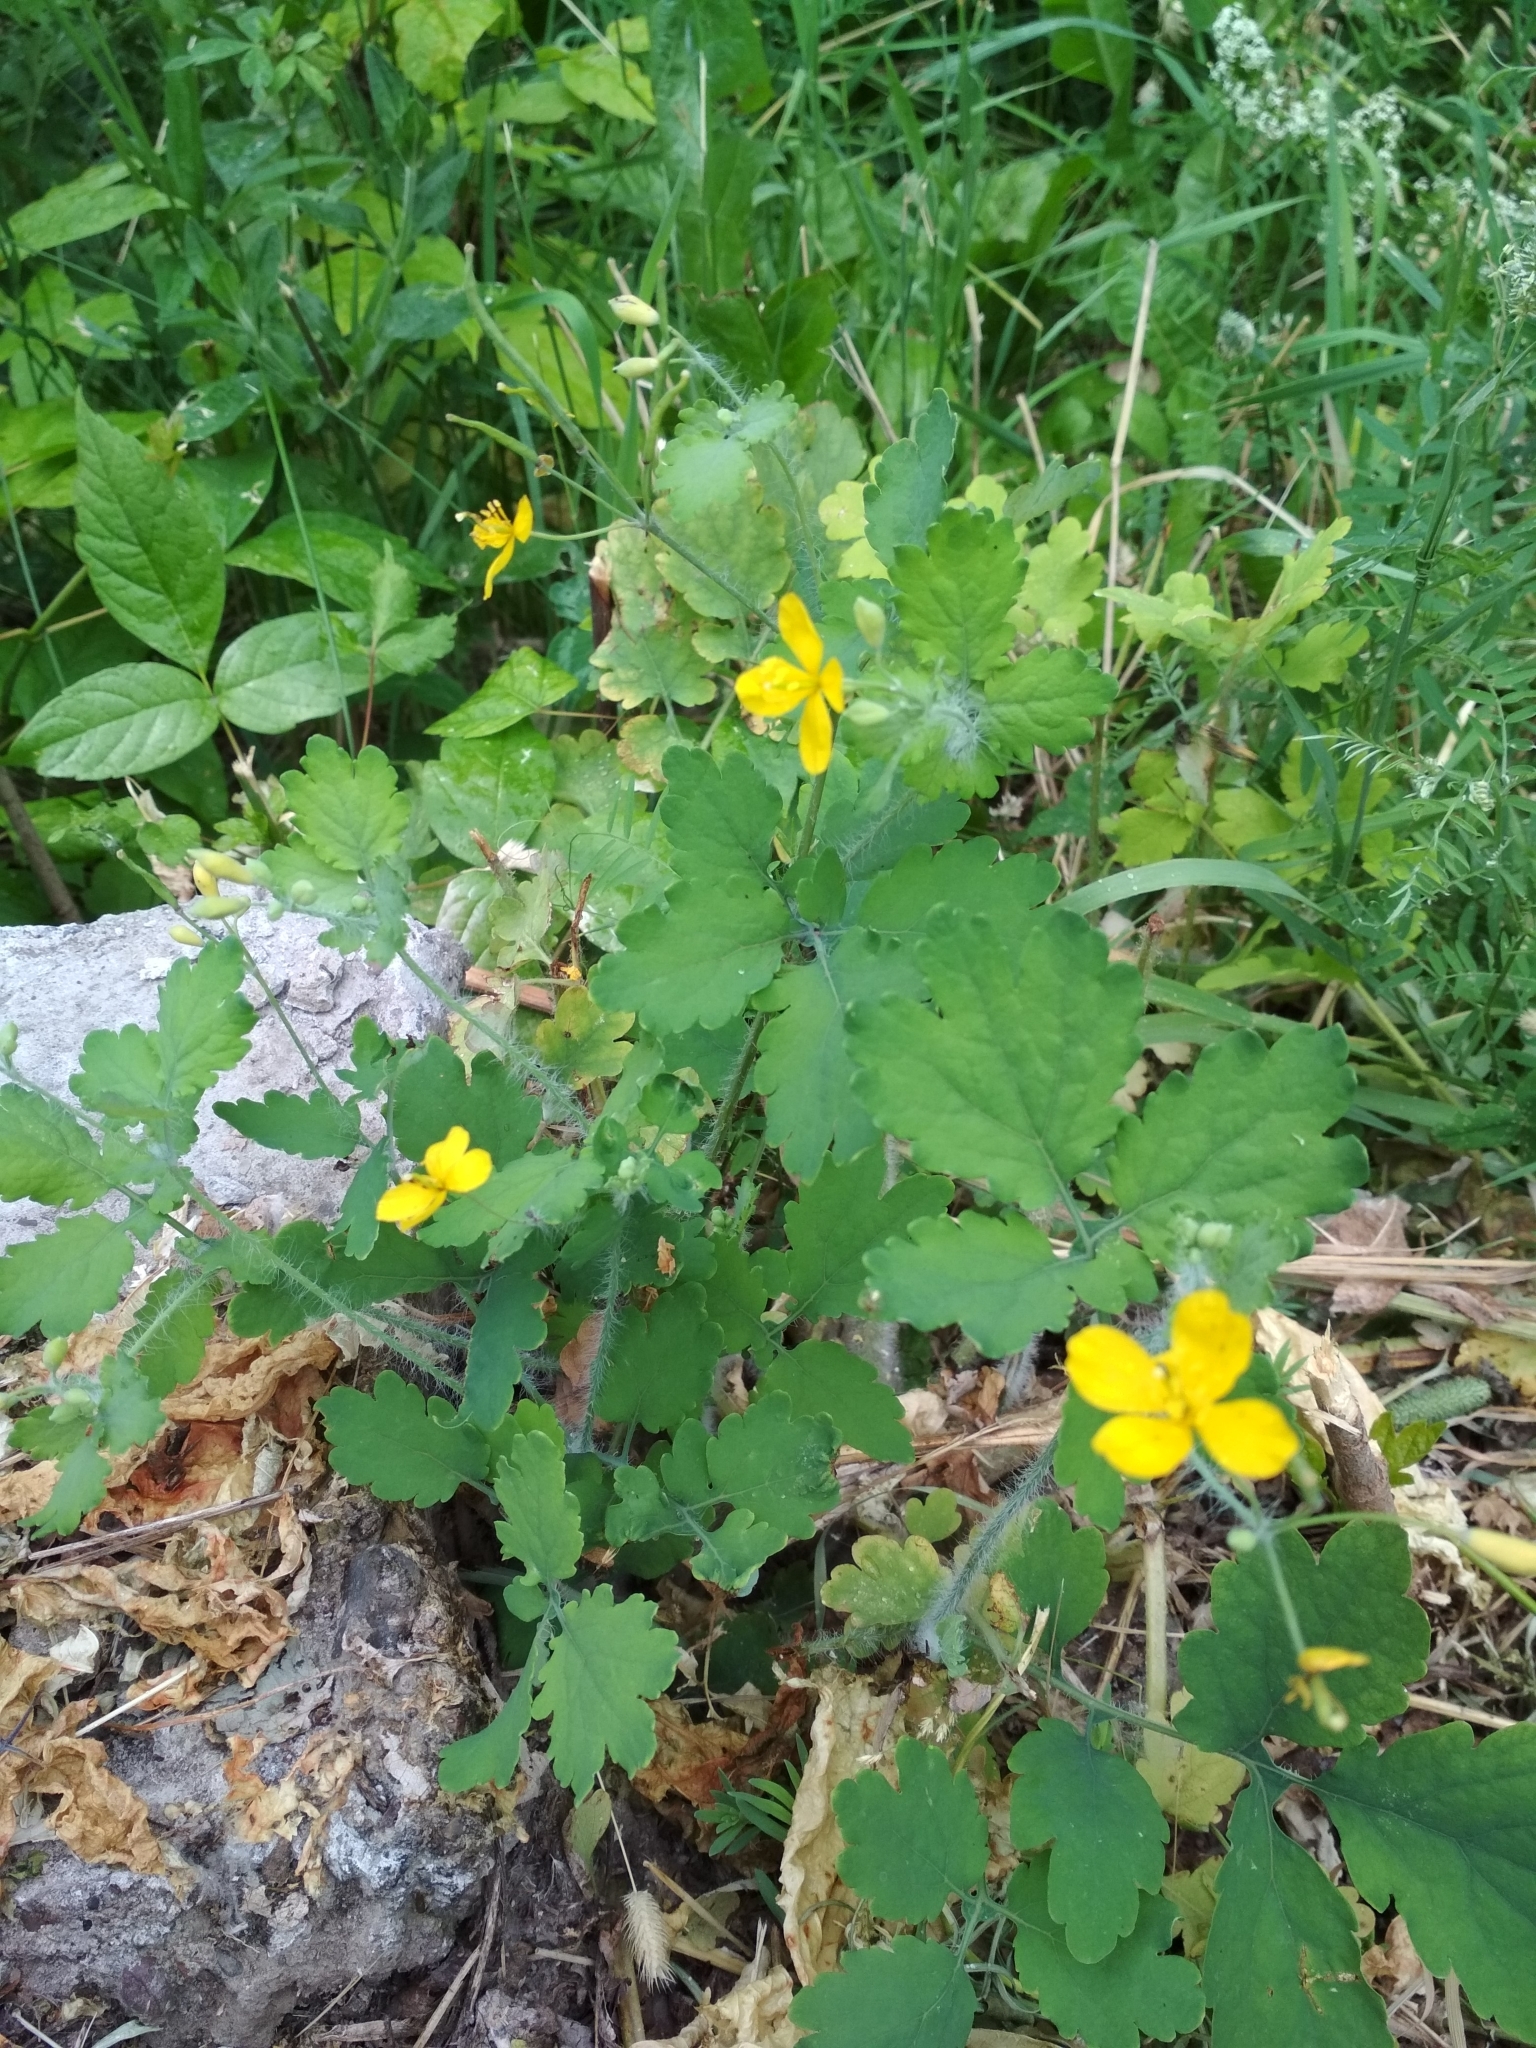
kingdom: Plantae
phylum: Tracheophyta
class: Magnoliopsida
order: Ranunculales
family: Papaveraceae
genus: Chelidonium
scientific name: Chelidonium majus
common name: Greater celandine
